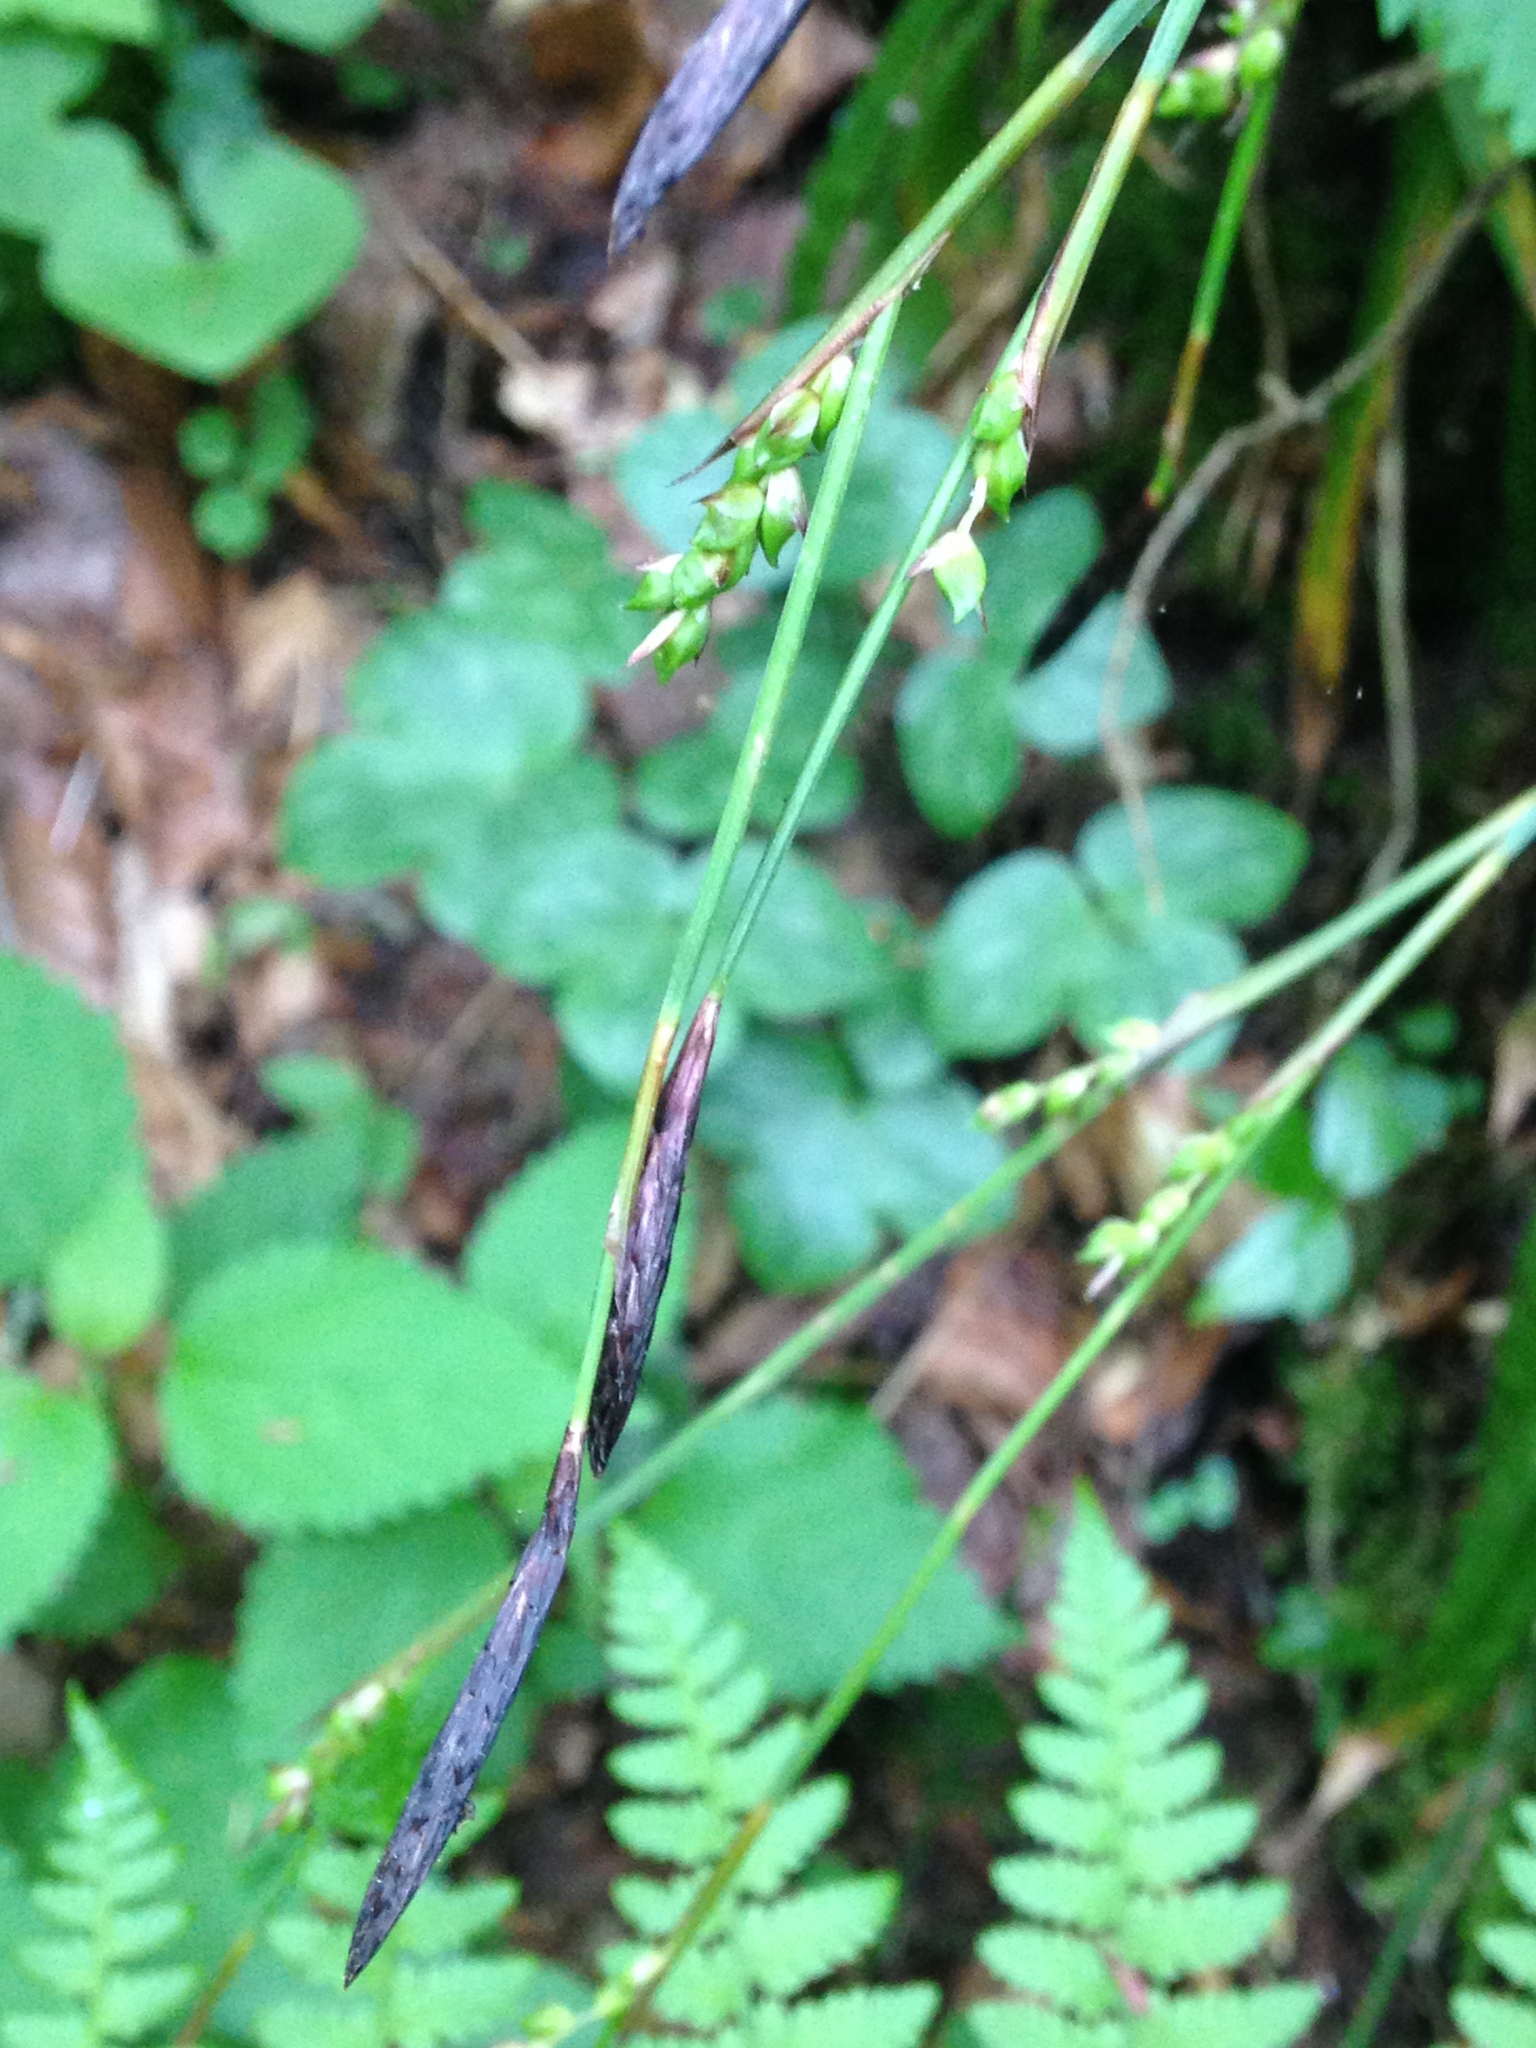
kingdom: Plantae
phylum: Tracheophyta
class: Liliopsida
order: Poales
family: Cyperaceae
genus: Carex
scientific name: Carex plantaginea
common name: Plantain-leaved sedge
